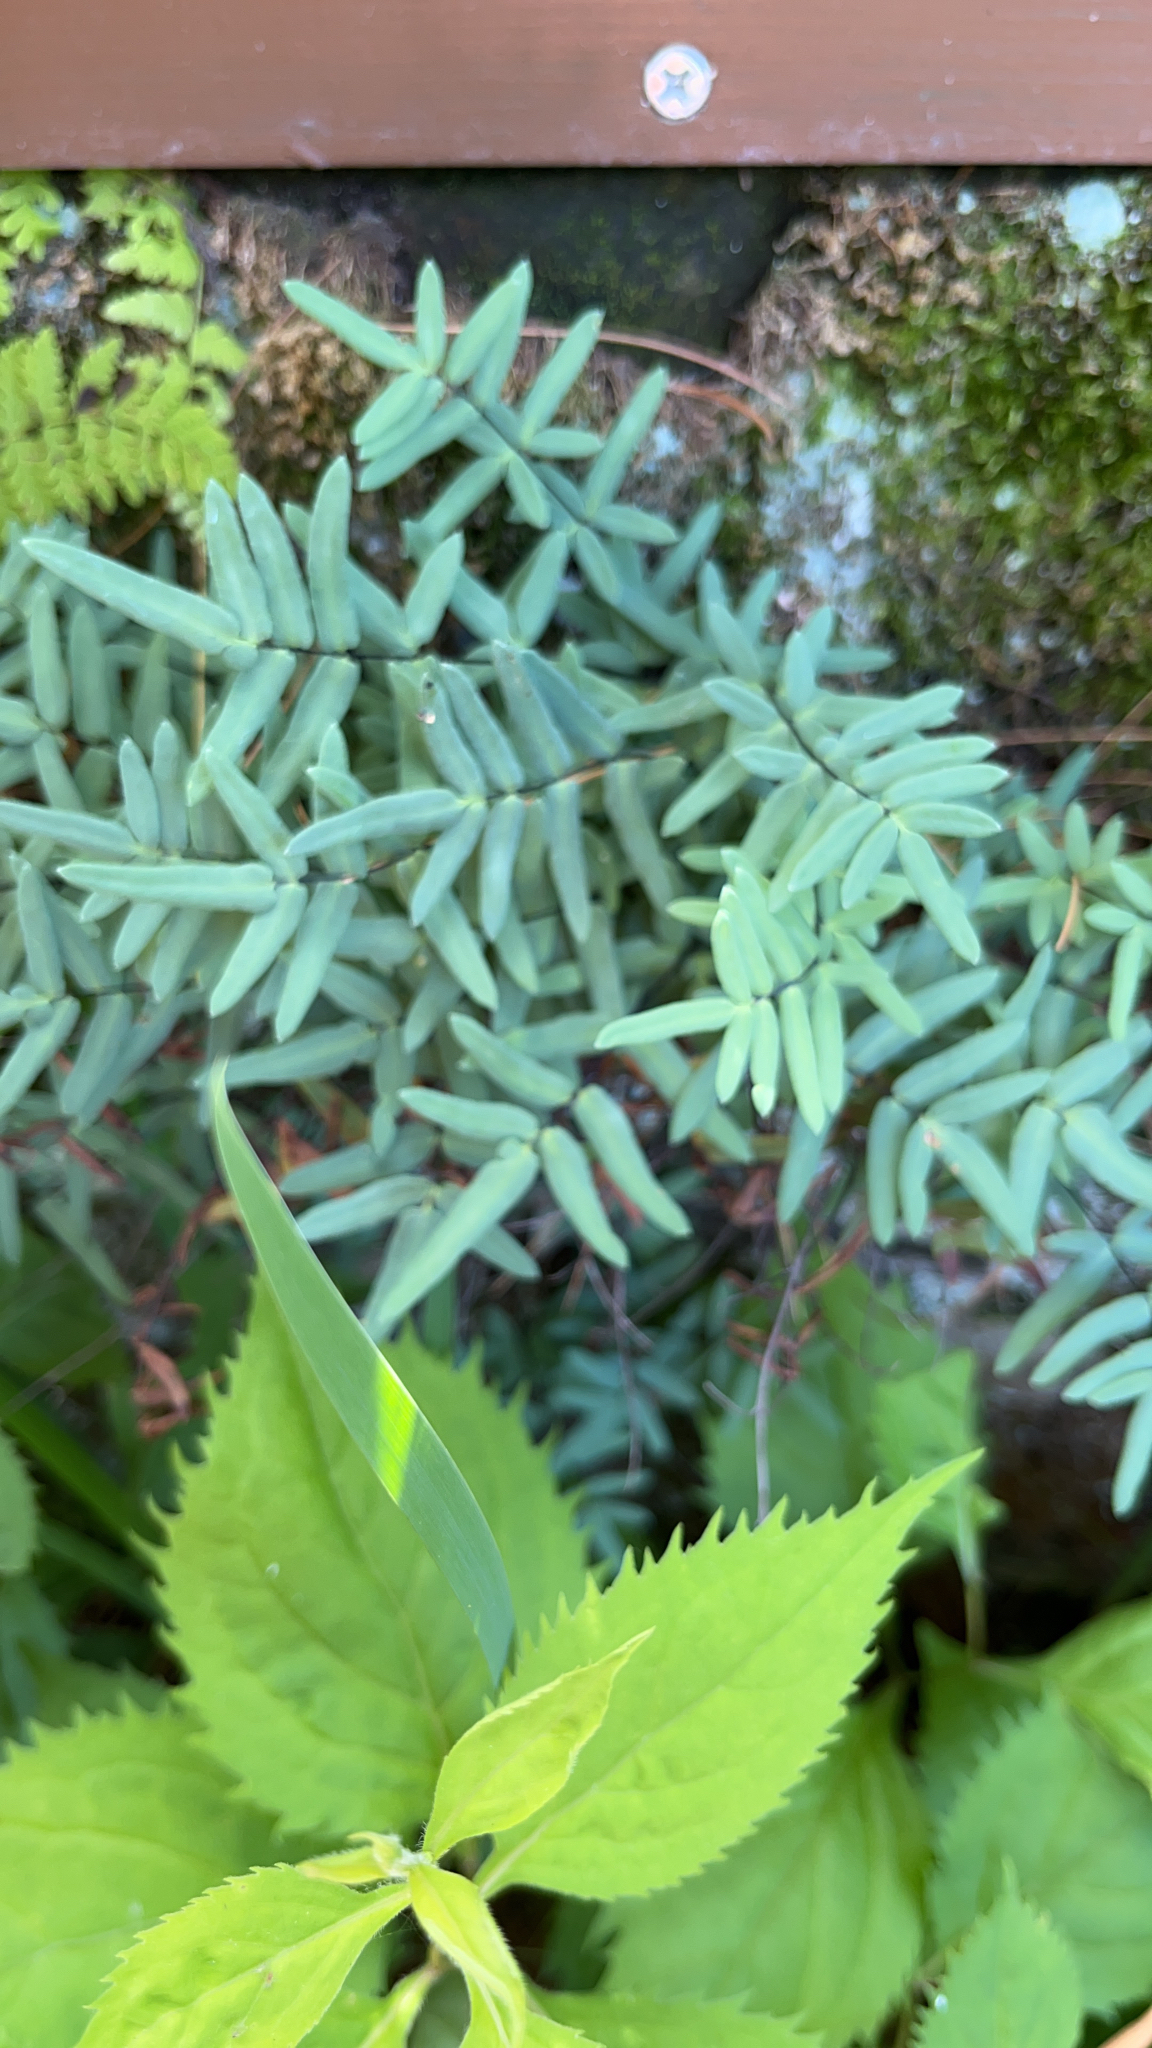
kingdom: Plantae
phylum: Tracheophyta
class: Polypodiopsida
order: Polypodiales
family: Pteridaceae
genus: Pellaea
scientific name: Pellaea glabella
